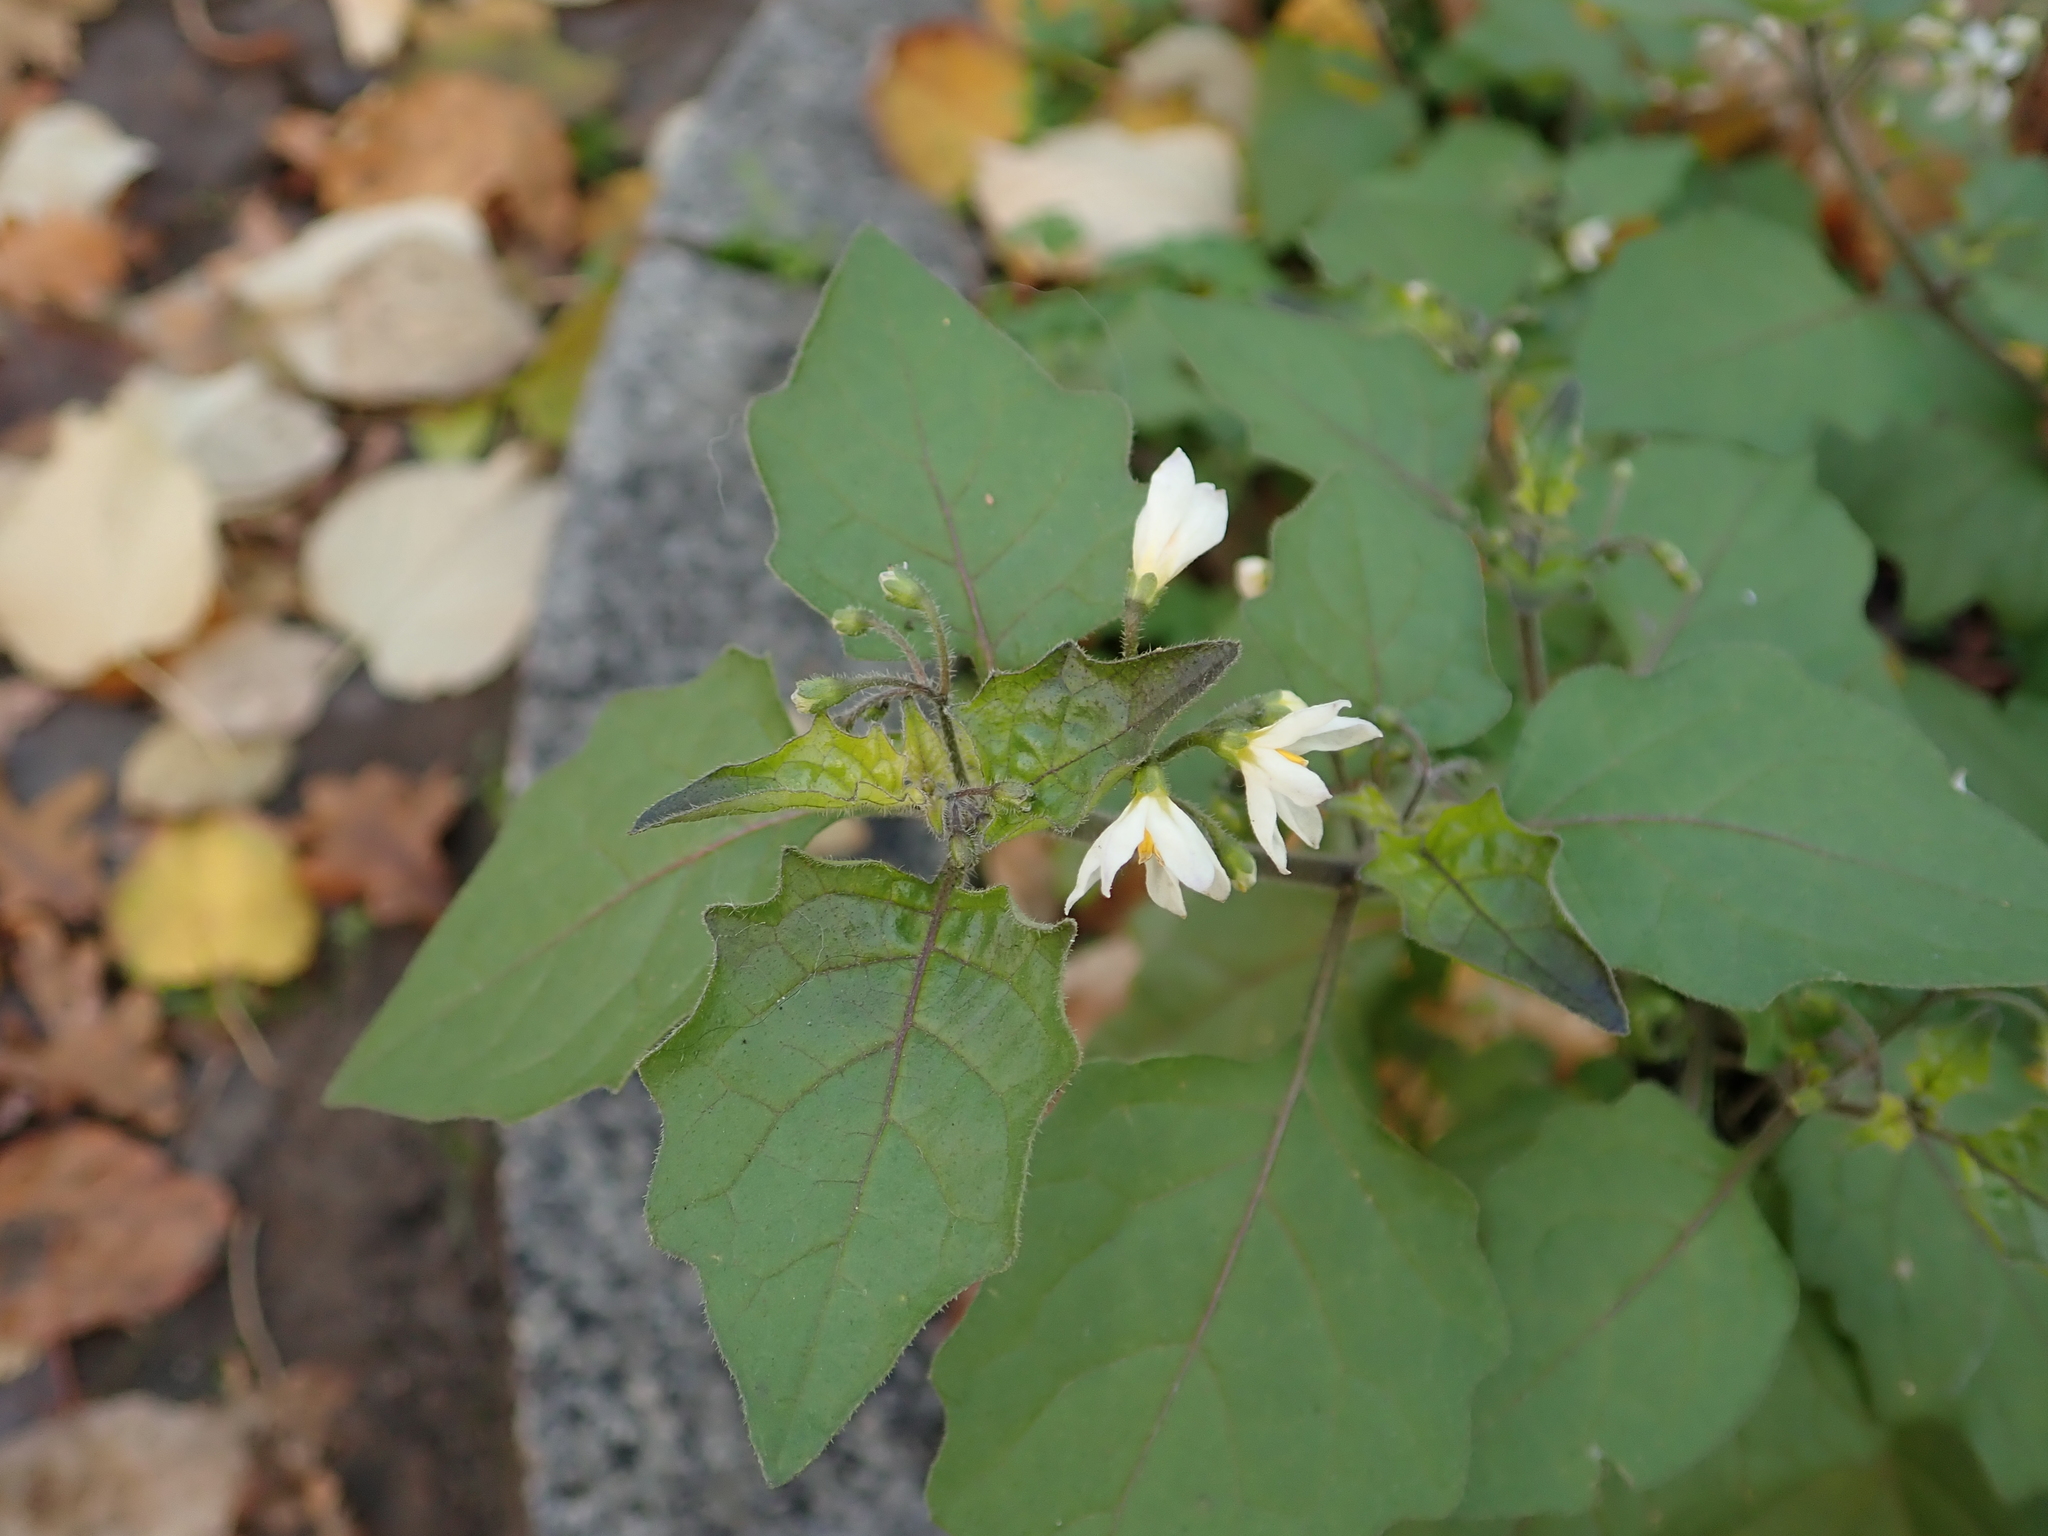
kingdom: Plantae
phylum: Tracheophyta
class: Magnoliopsida
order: Solanales
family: Solanaceae
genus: Solanum
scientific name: Solanum nigrum
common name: Black nightshade
